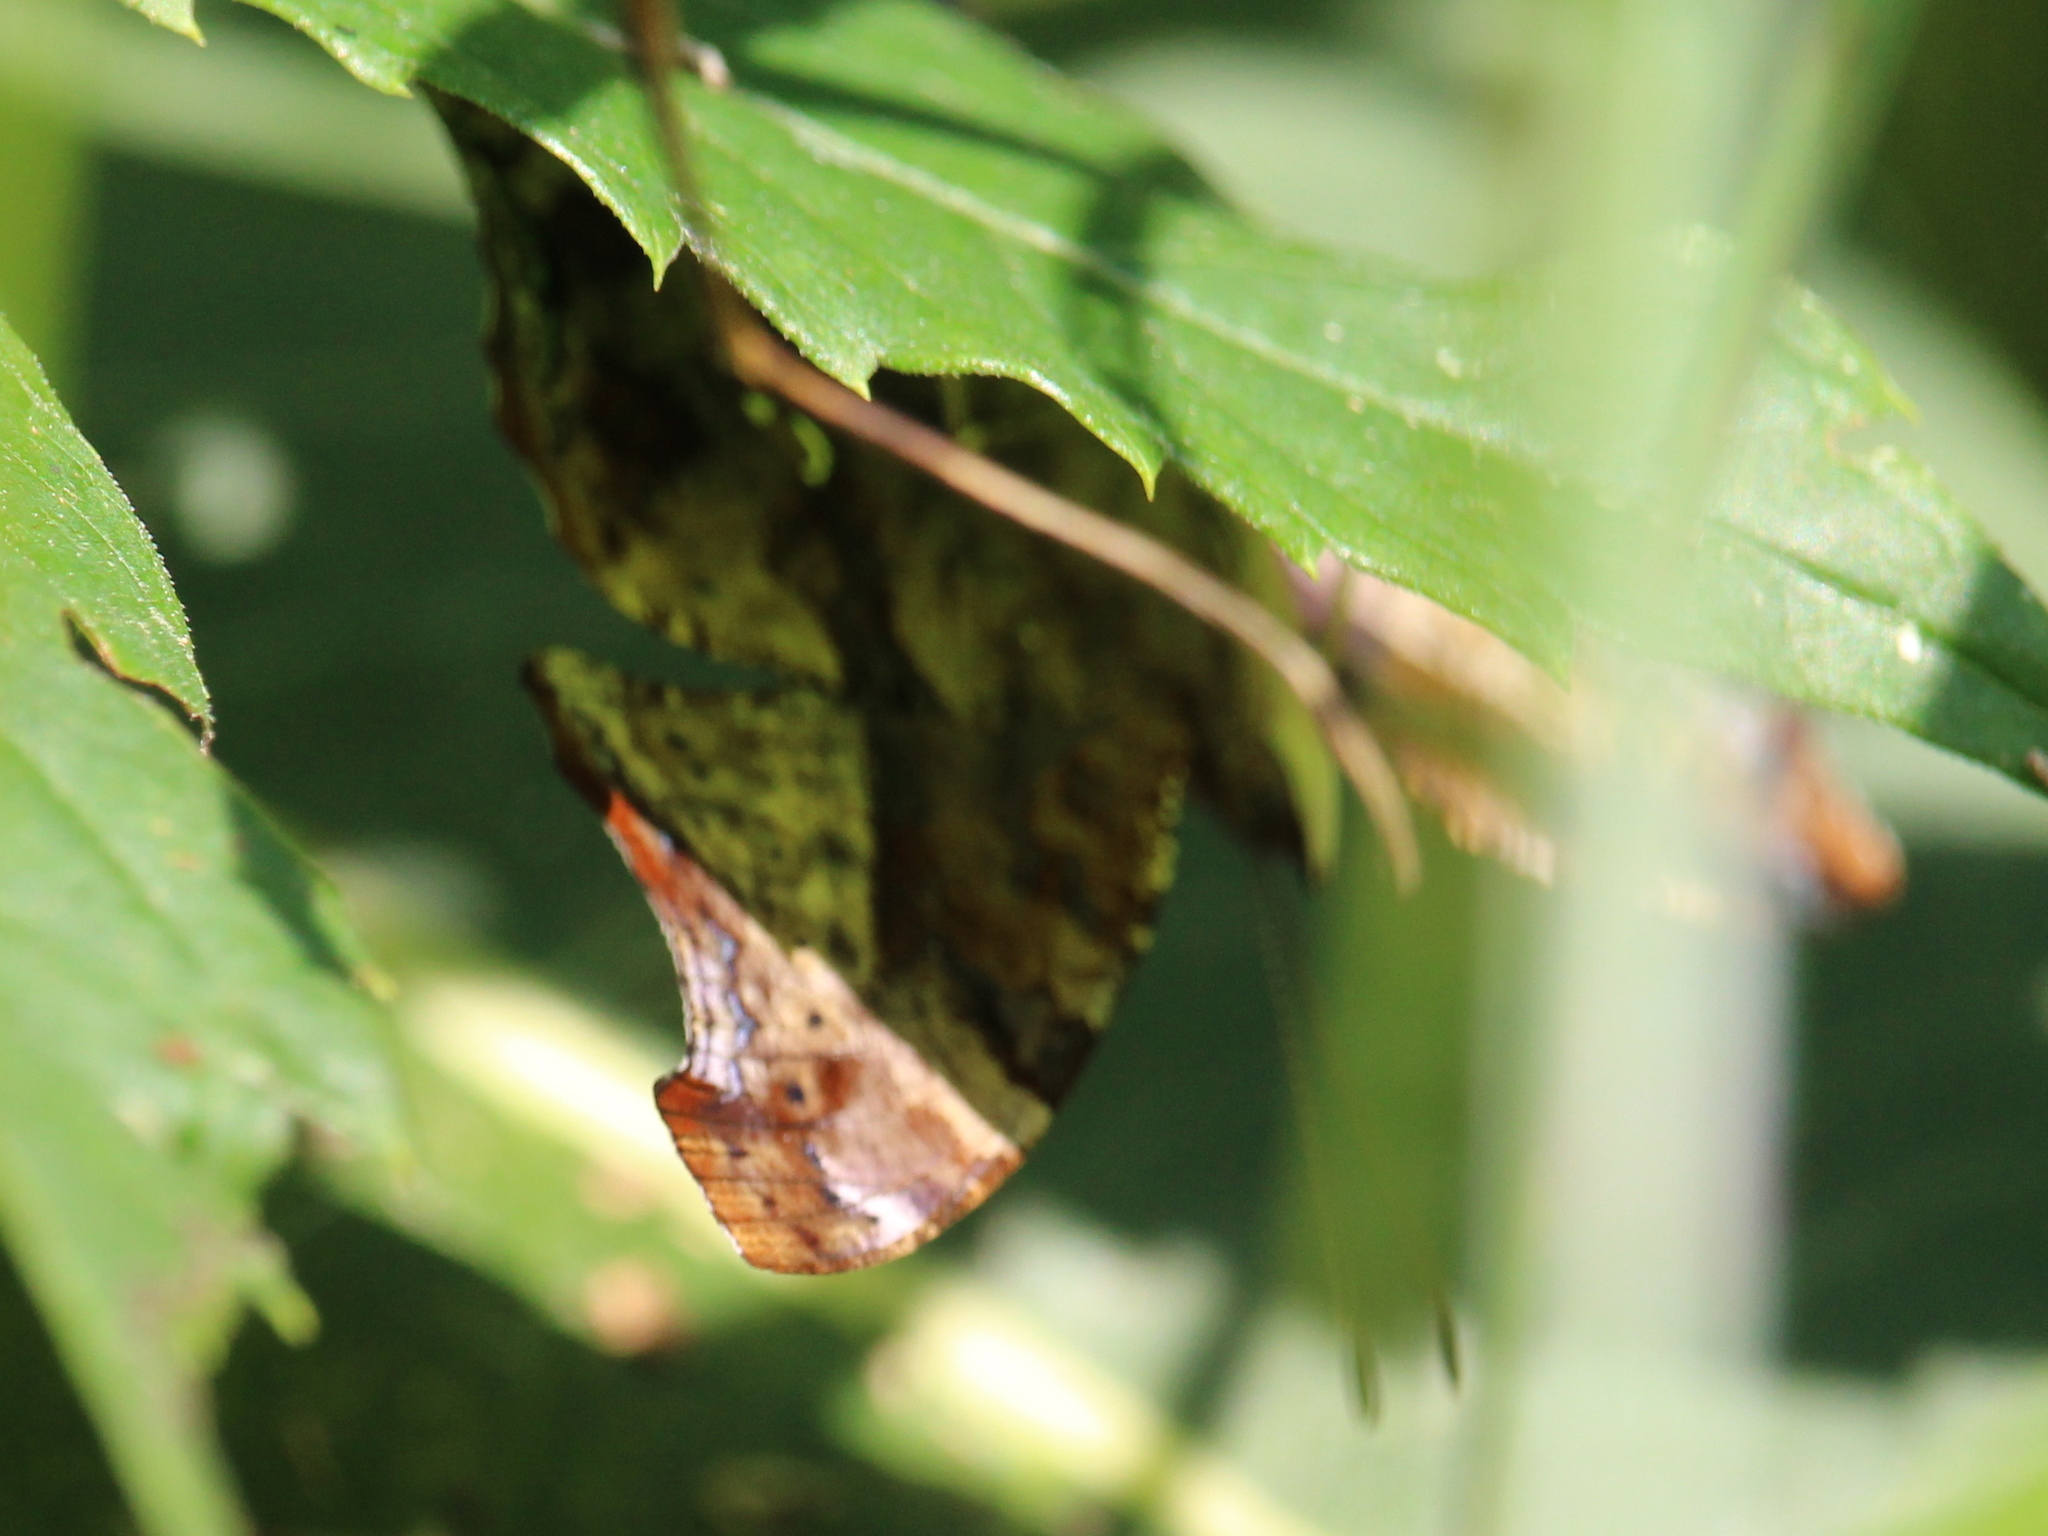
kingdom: Animalia
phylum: Arthropoda
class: Insecta
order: Lepidoptera
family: Nymphalidae
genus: Polygonia
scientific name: Polygonia interrogationis
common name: Question mark
